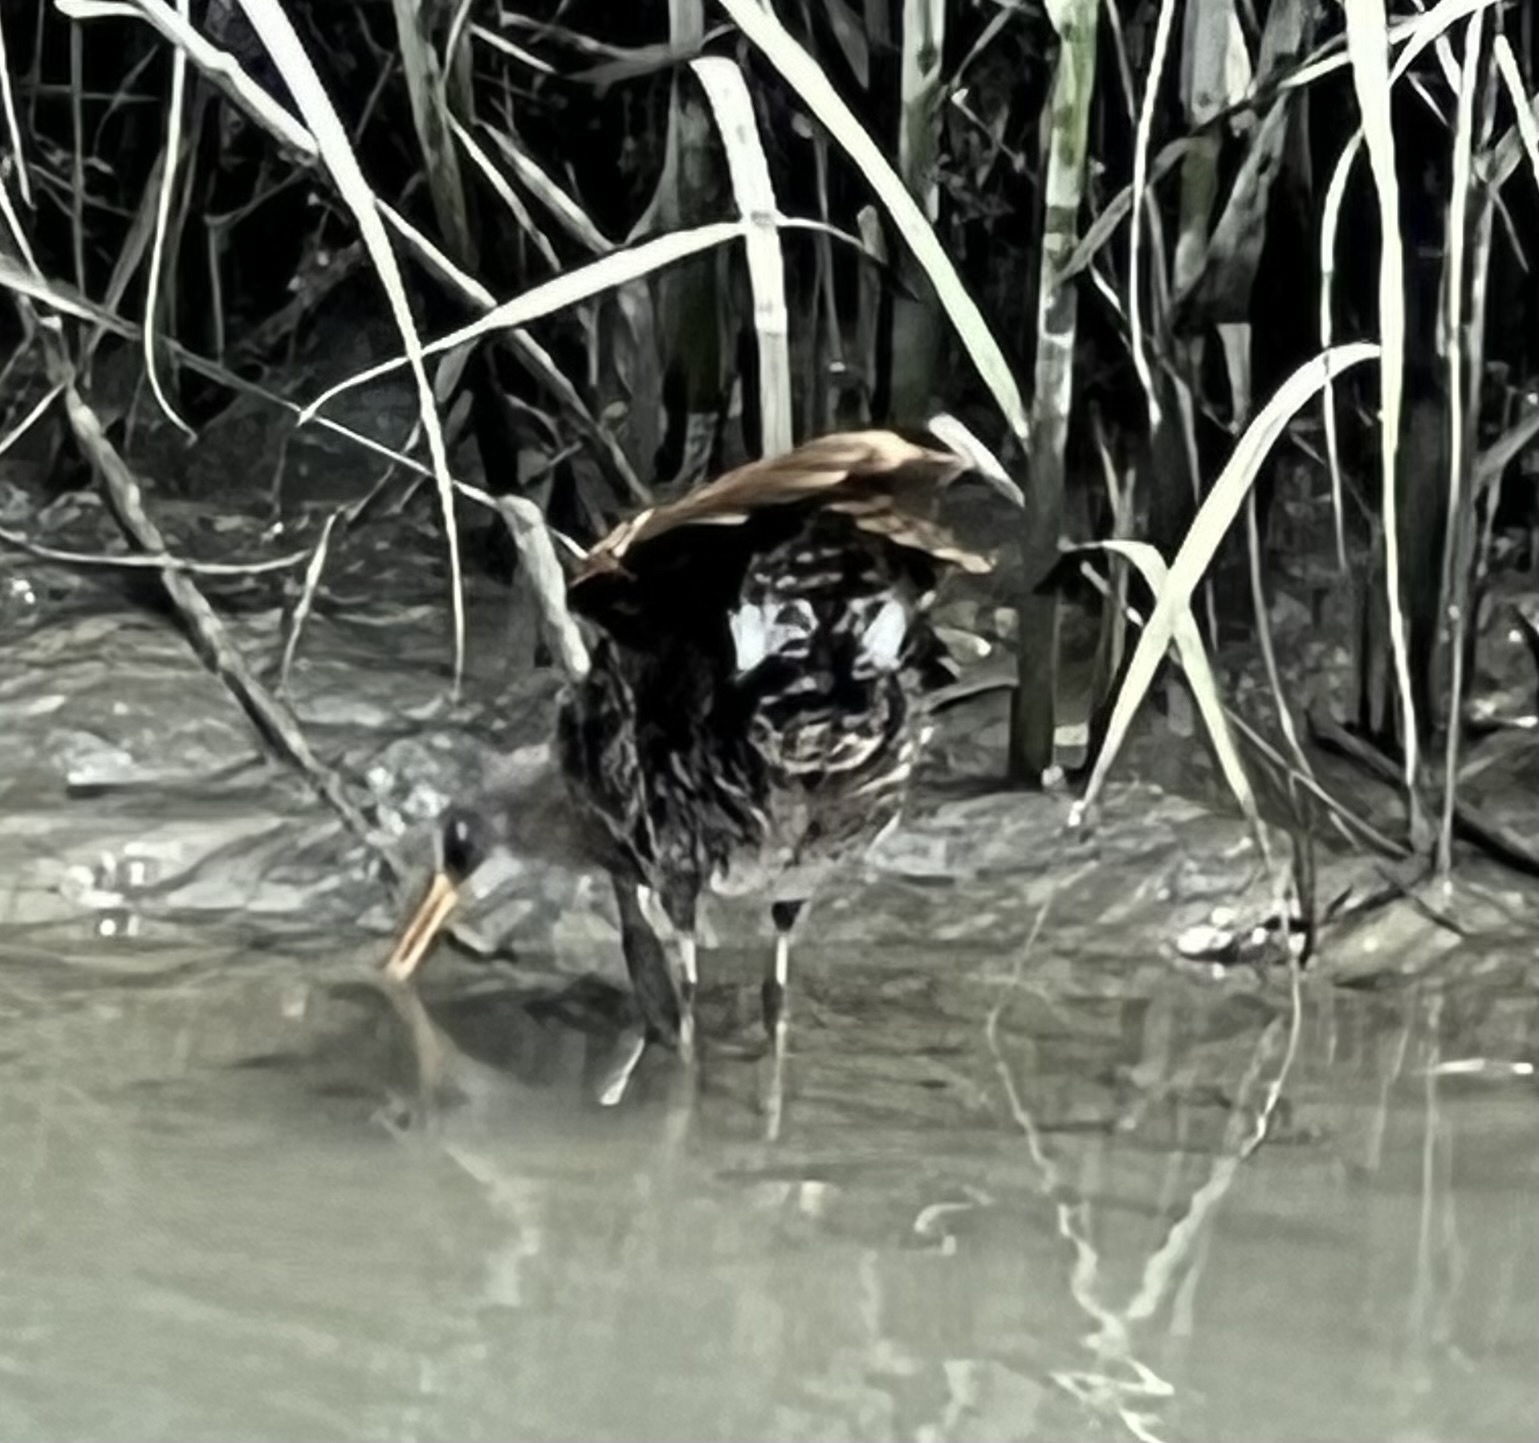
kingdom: Animalia
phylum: Chordata
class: Aves
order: Gruiformes
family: Rallidae
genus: Rallus
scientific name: Rallus crepitans
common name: Clapper rail
